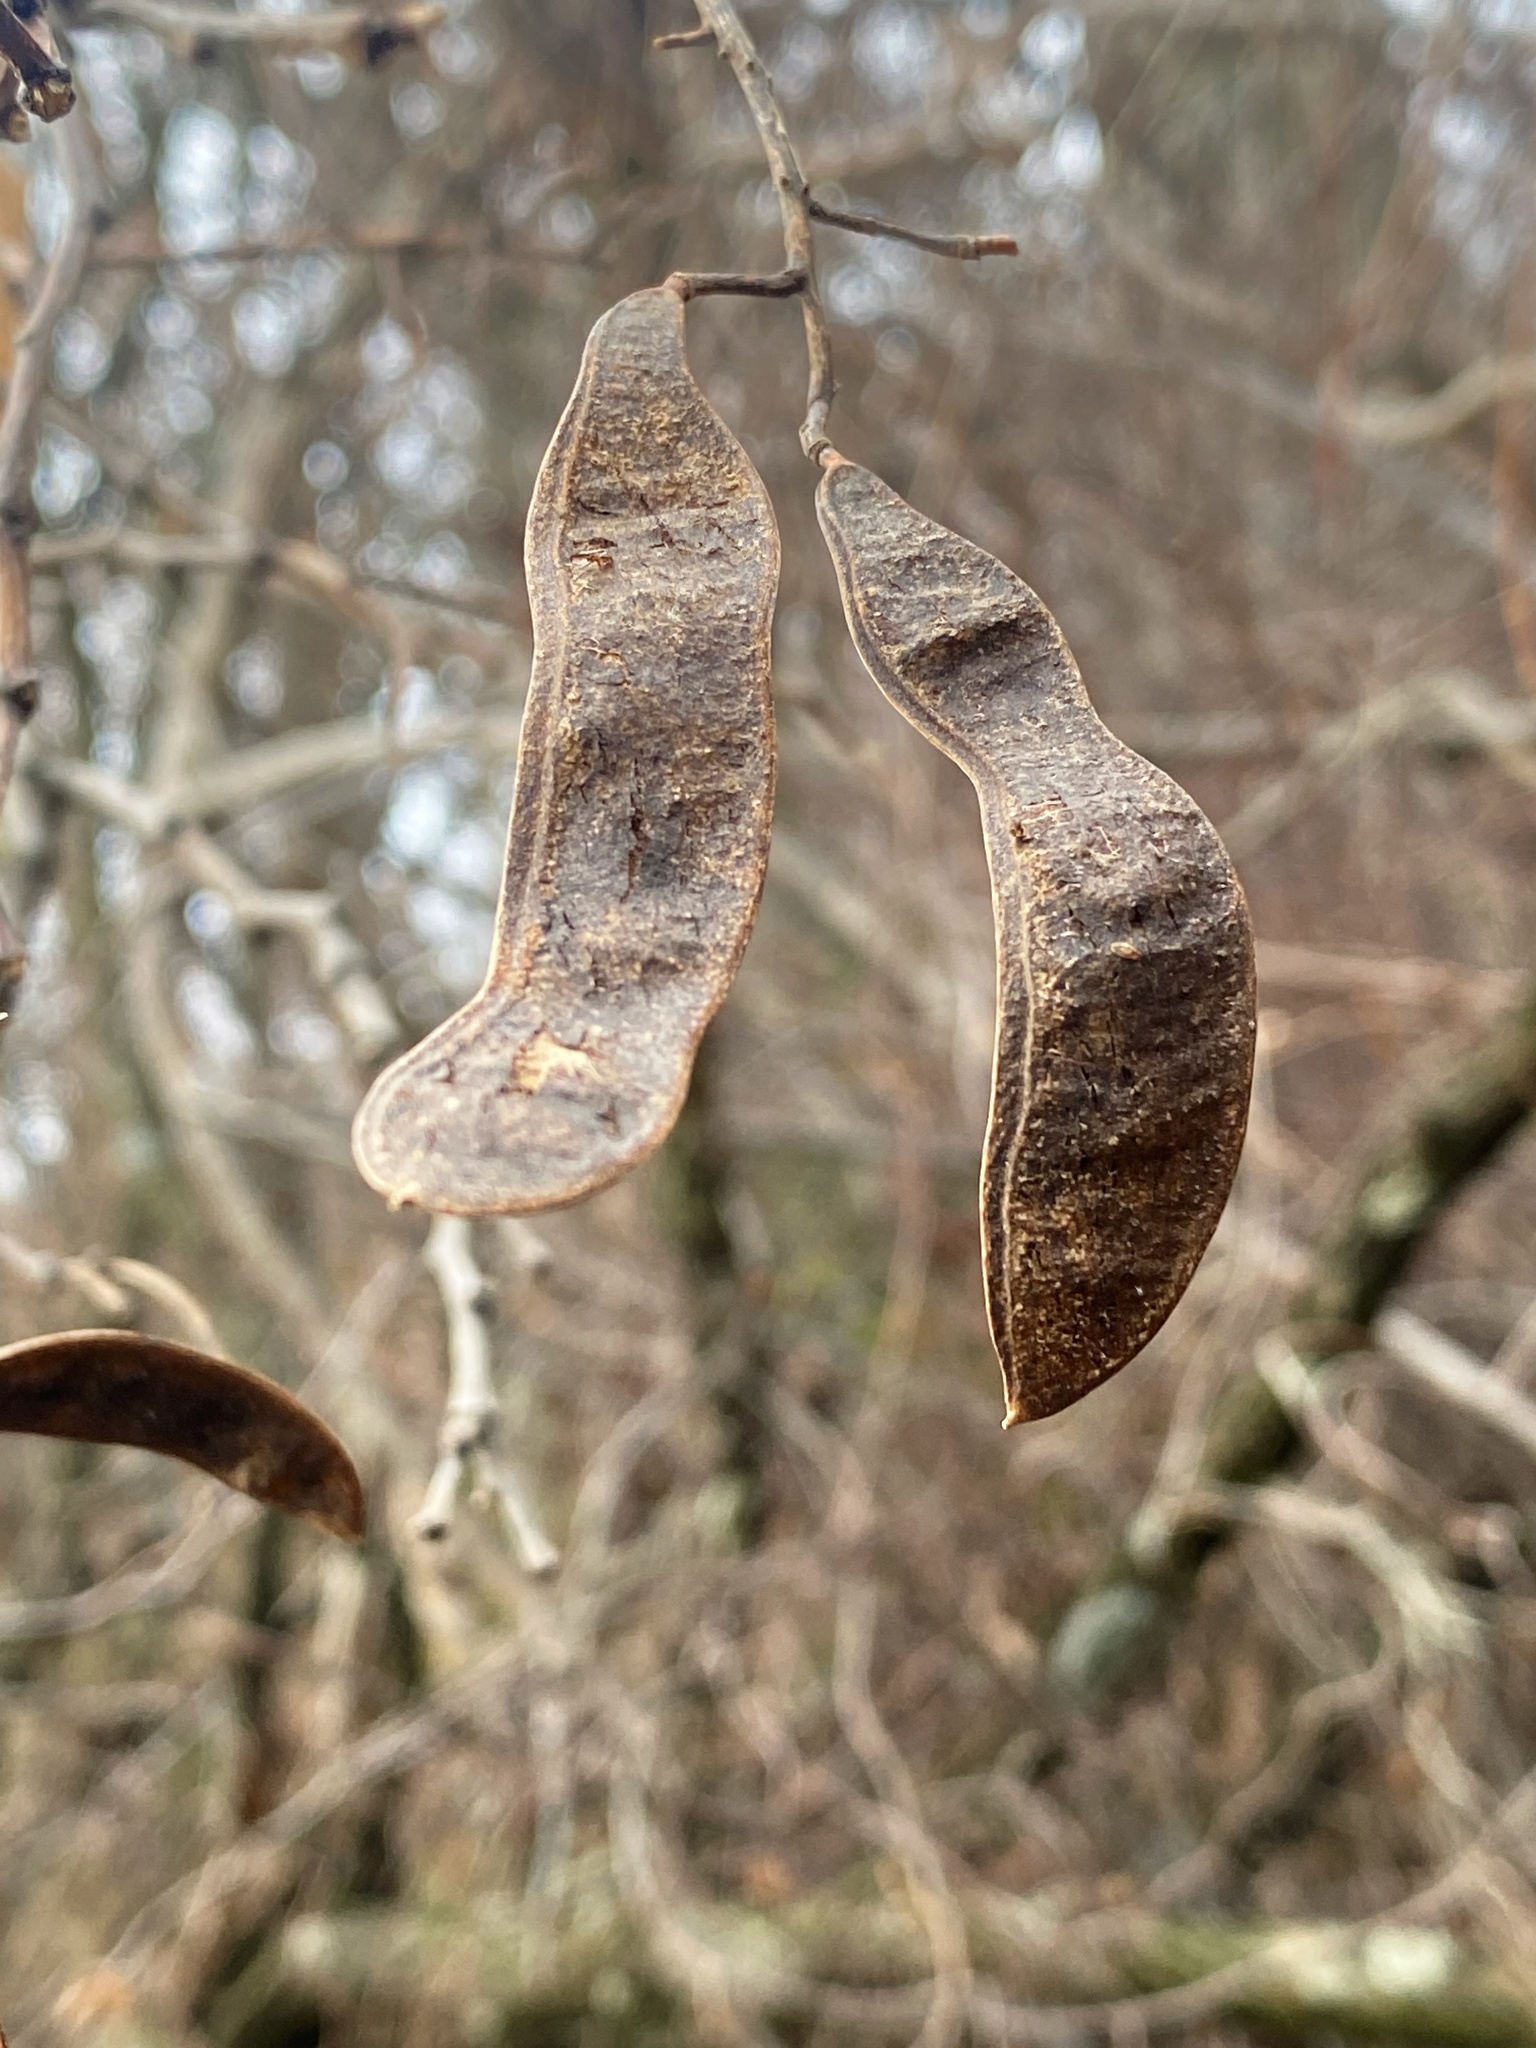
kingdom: Plantae
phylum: Tracheophyta
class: Magnoliopsida
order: Fabales
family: Fabaceae
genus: Robinia
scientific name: Robinia pseudoacacia
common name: Black locust
